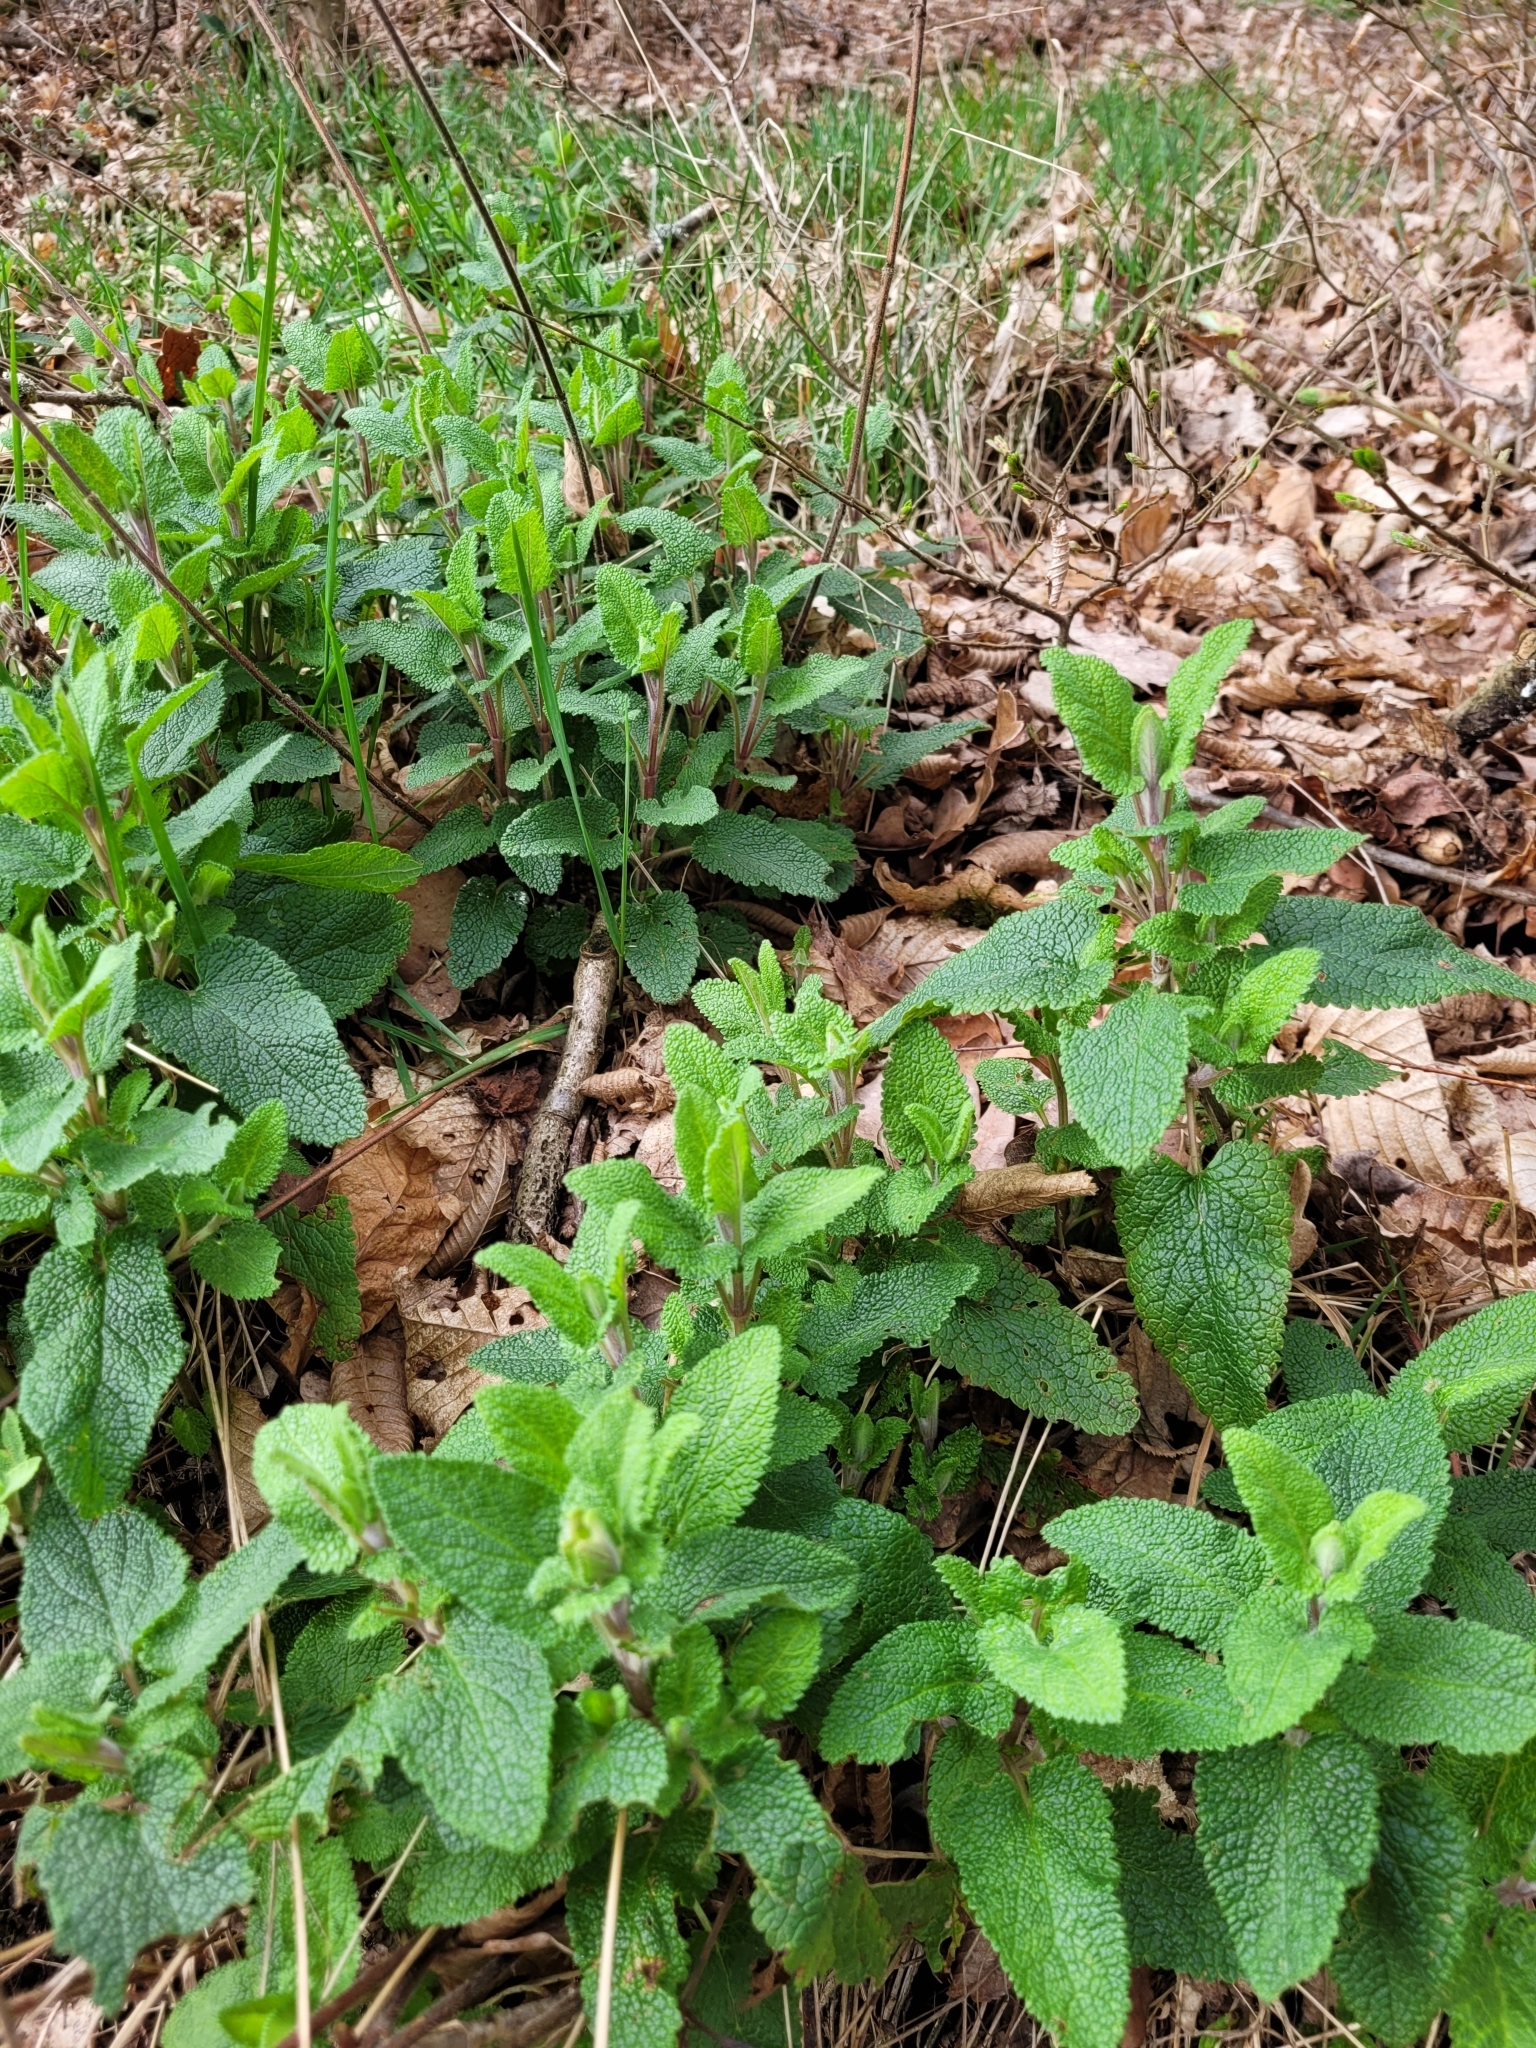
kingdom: Plantae
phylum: Tracheophyta
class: Magnoliopsida
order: Lamiales
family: Lamiaceae
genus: Teucrium
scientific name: Teucrium scorodonia
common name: Woodland germander
